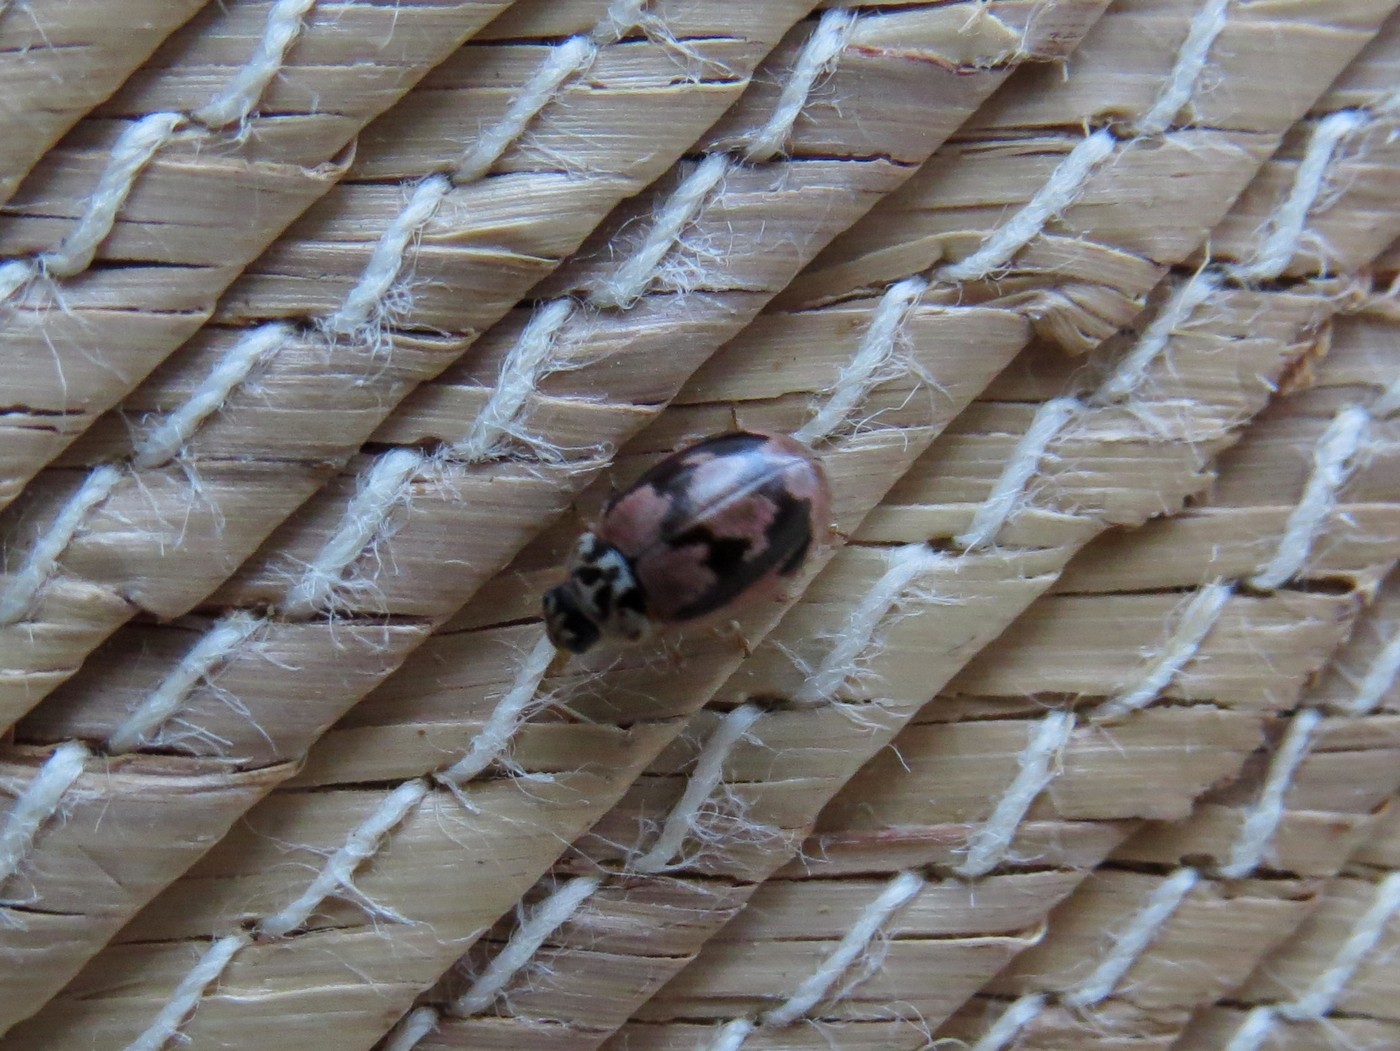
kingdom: Animalia
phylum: Arthropoda
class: Insecta
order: Coleoptera
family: Coccinellidae
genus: Mulsantina
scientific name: Mulsantina picta
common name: Painted ladybird
